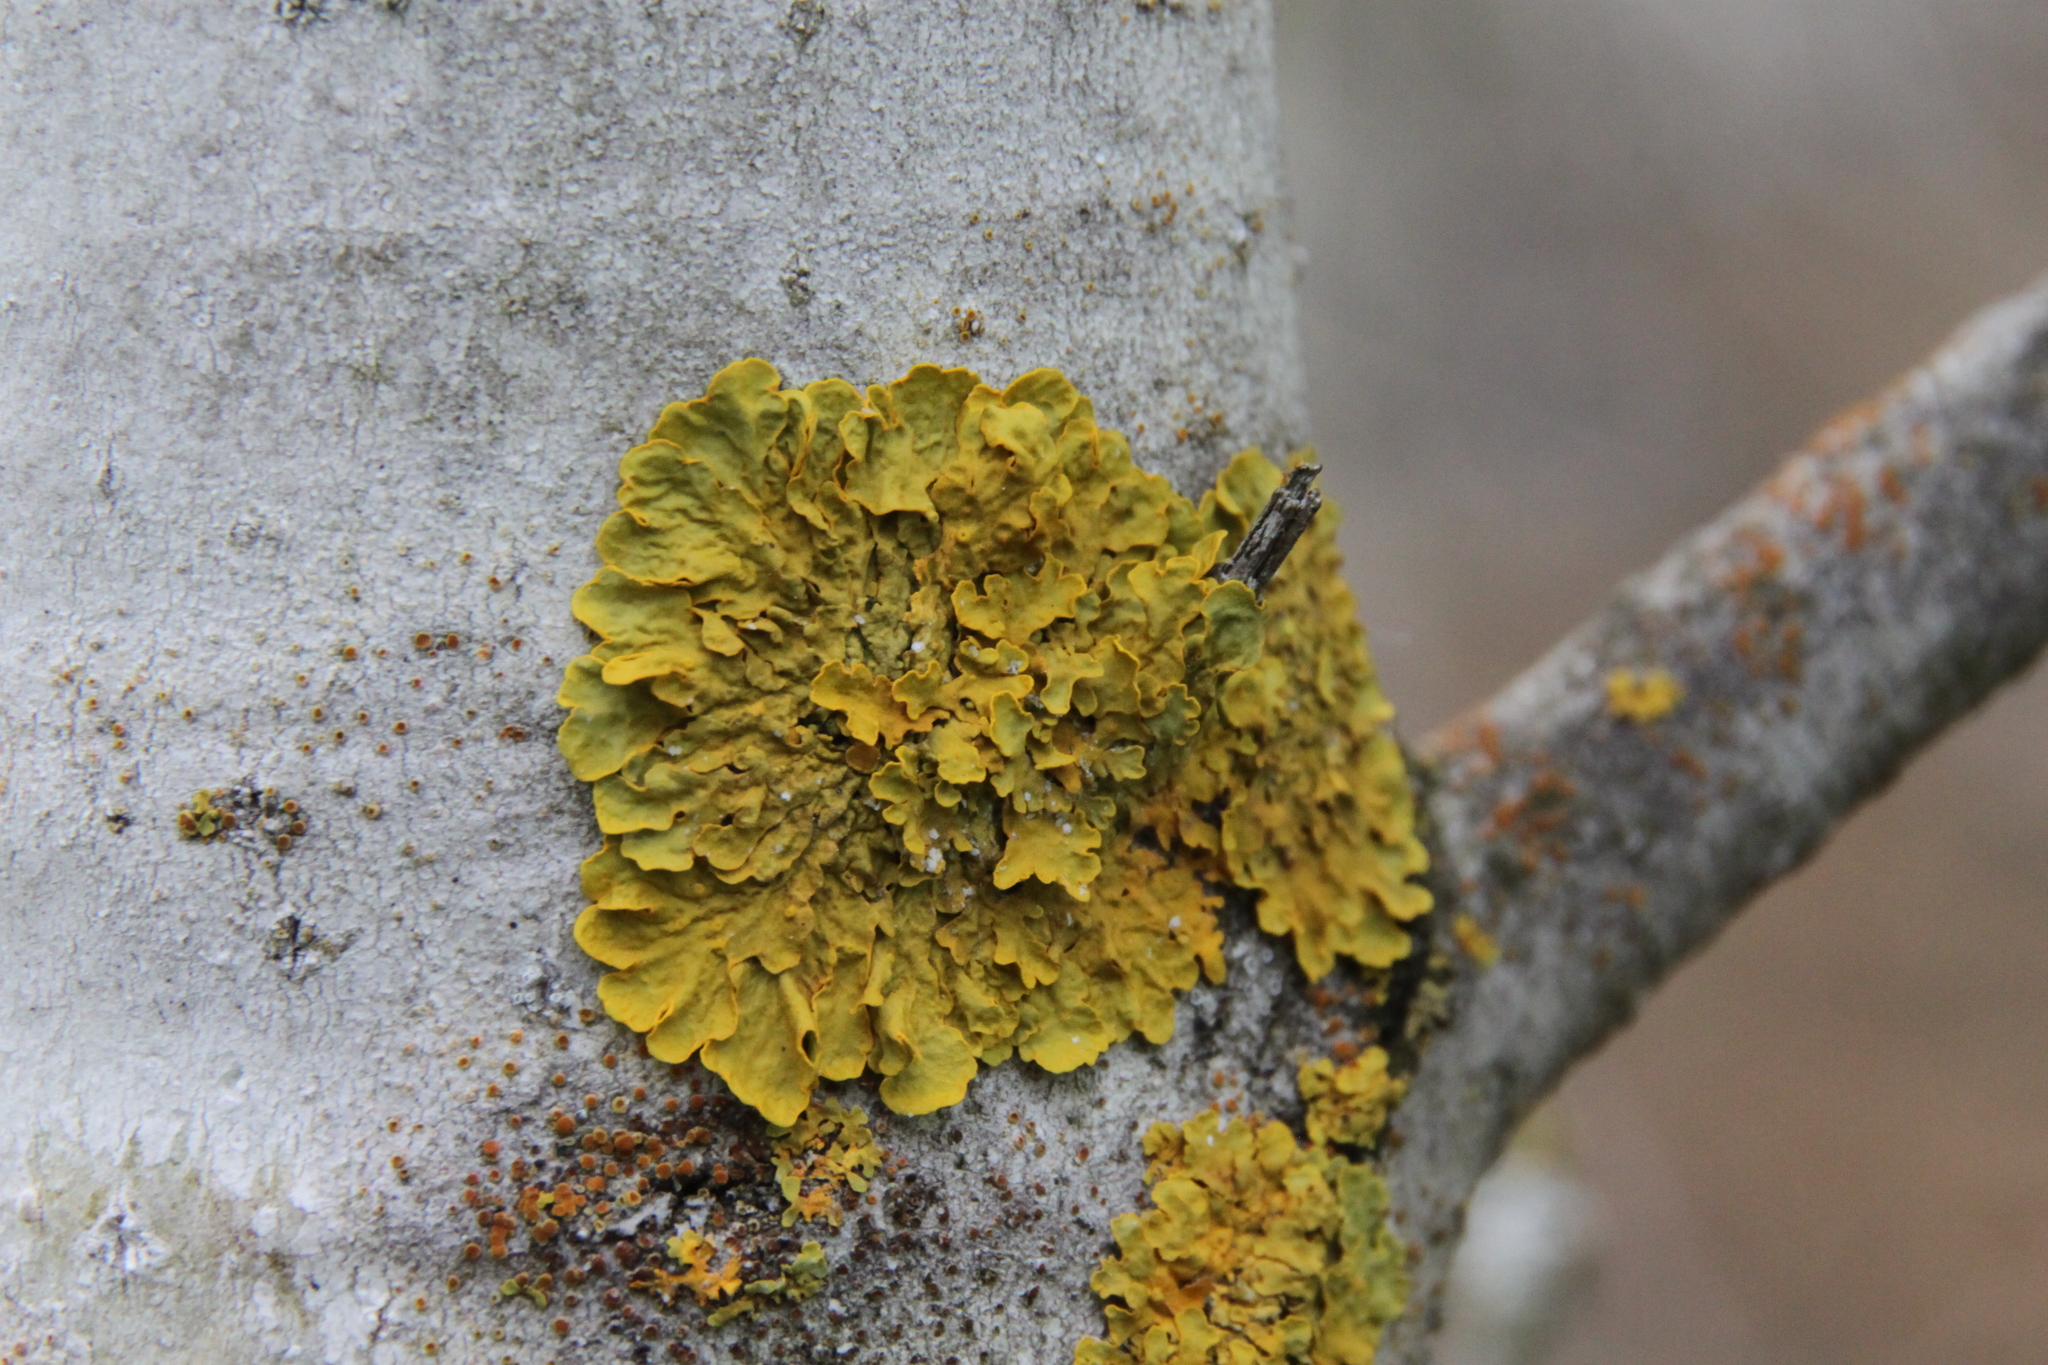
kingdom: Fungi
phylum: Ascomycota
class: Lecanoromycetes
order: Teloschistales
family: Teloschistaceae
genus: Xanthoria
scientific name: Xanthoria parietina
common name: Common orange lichen
